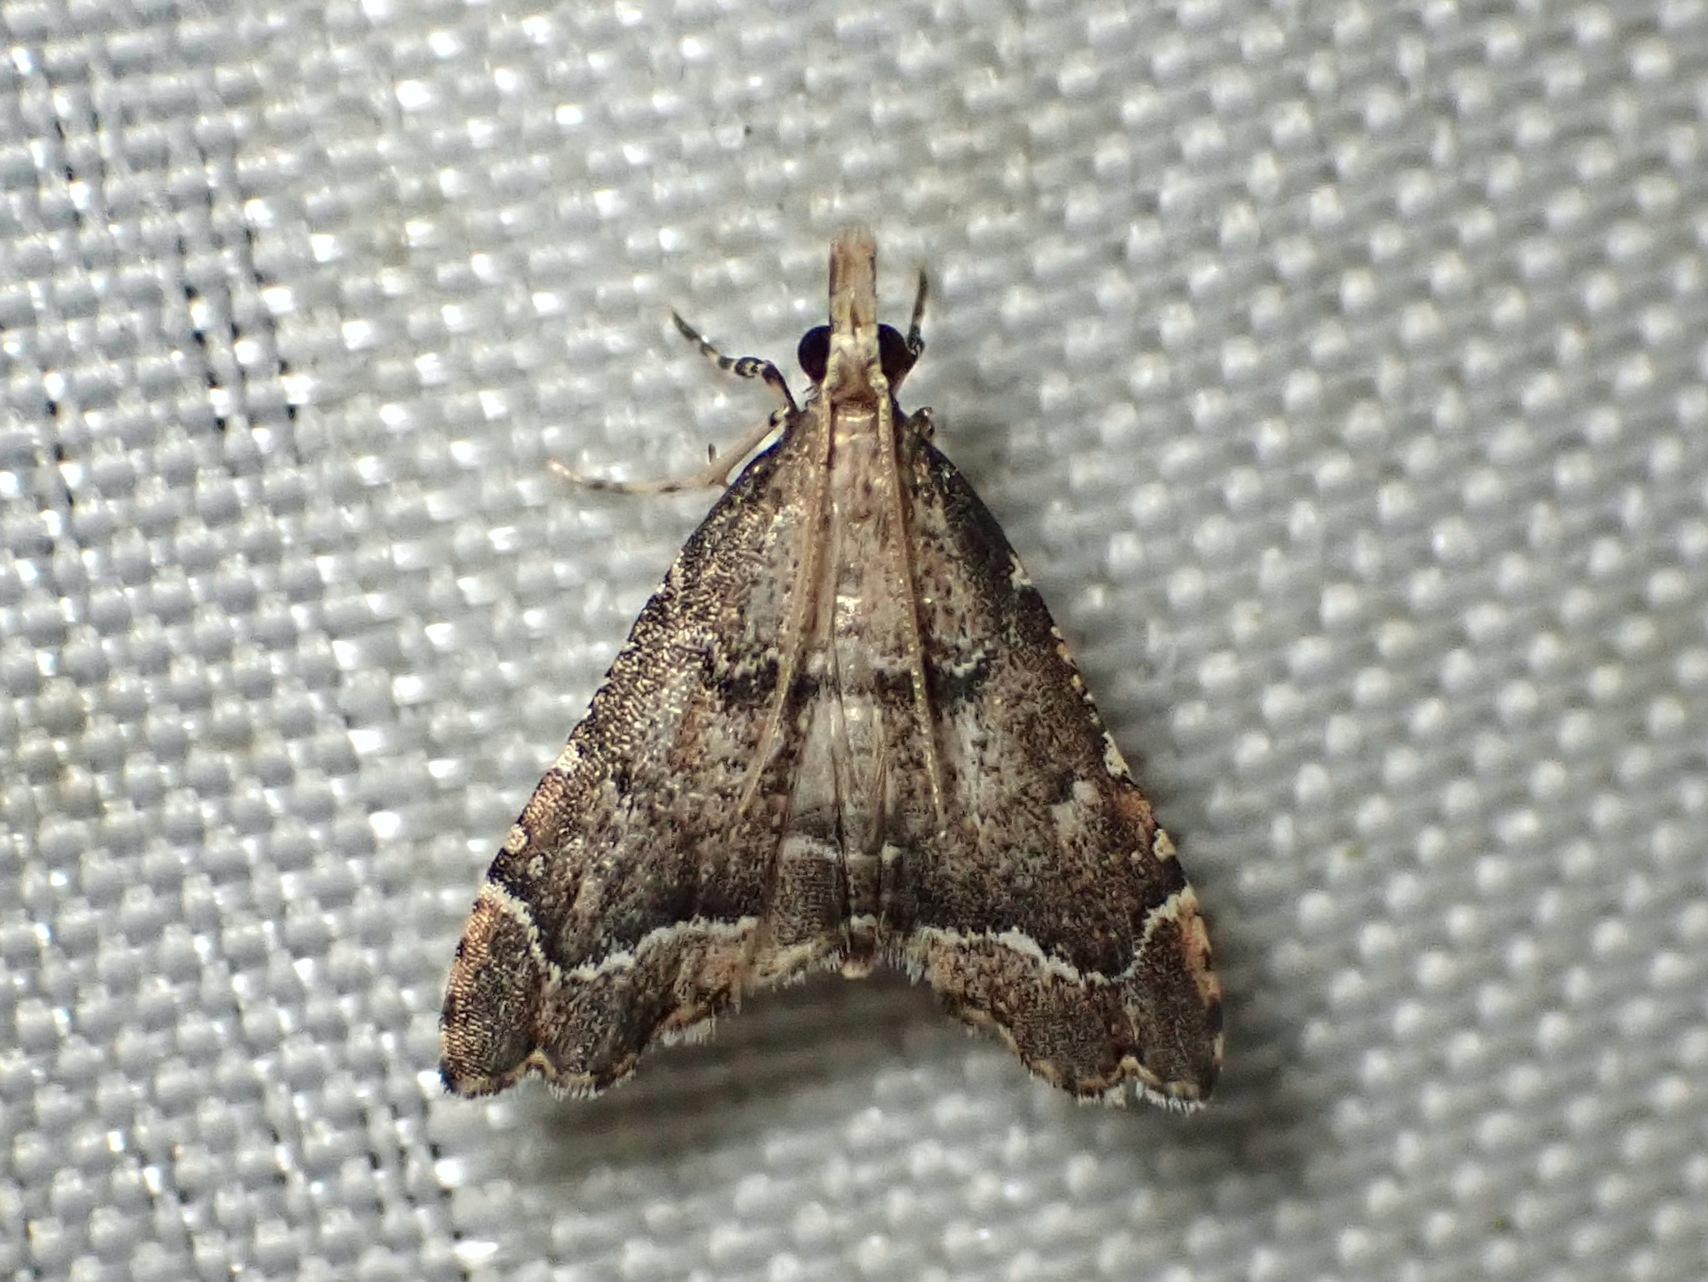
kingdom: Animalia
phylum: Arthropoda
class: Insecta
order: Lepidoptera
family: Crambidae
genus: Diplopseustis
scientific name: Diplopseustis perieresalis
